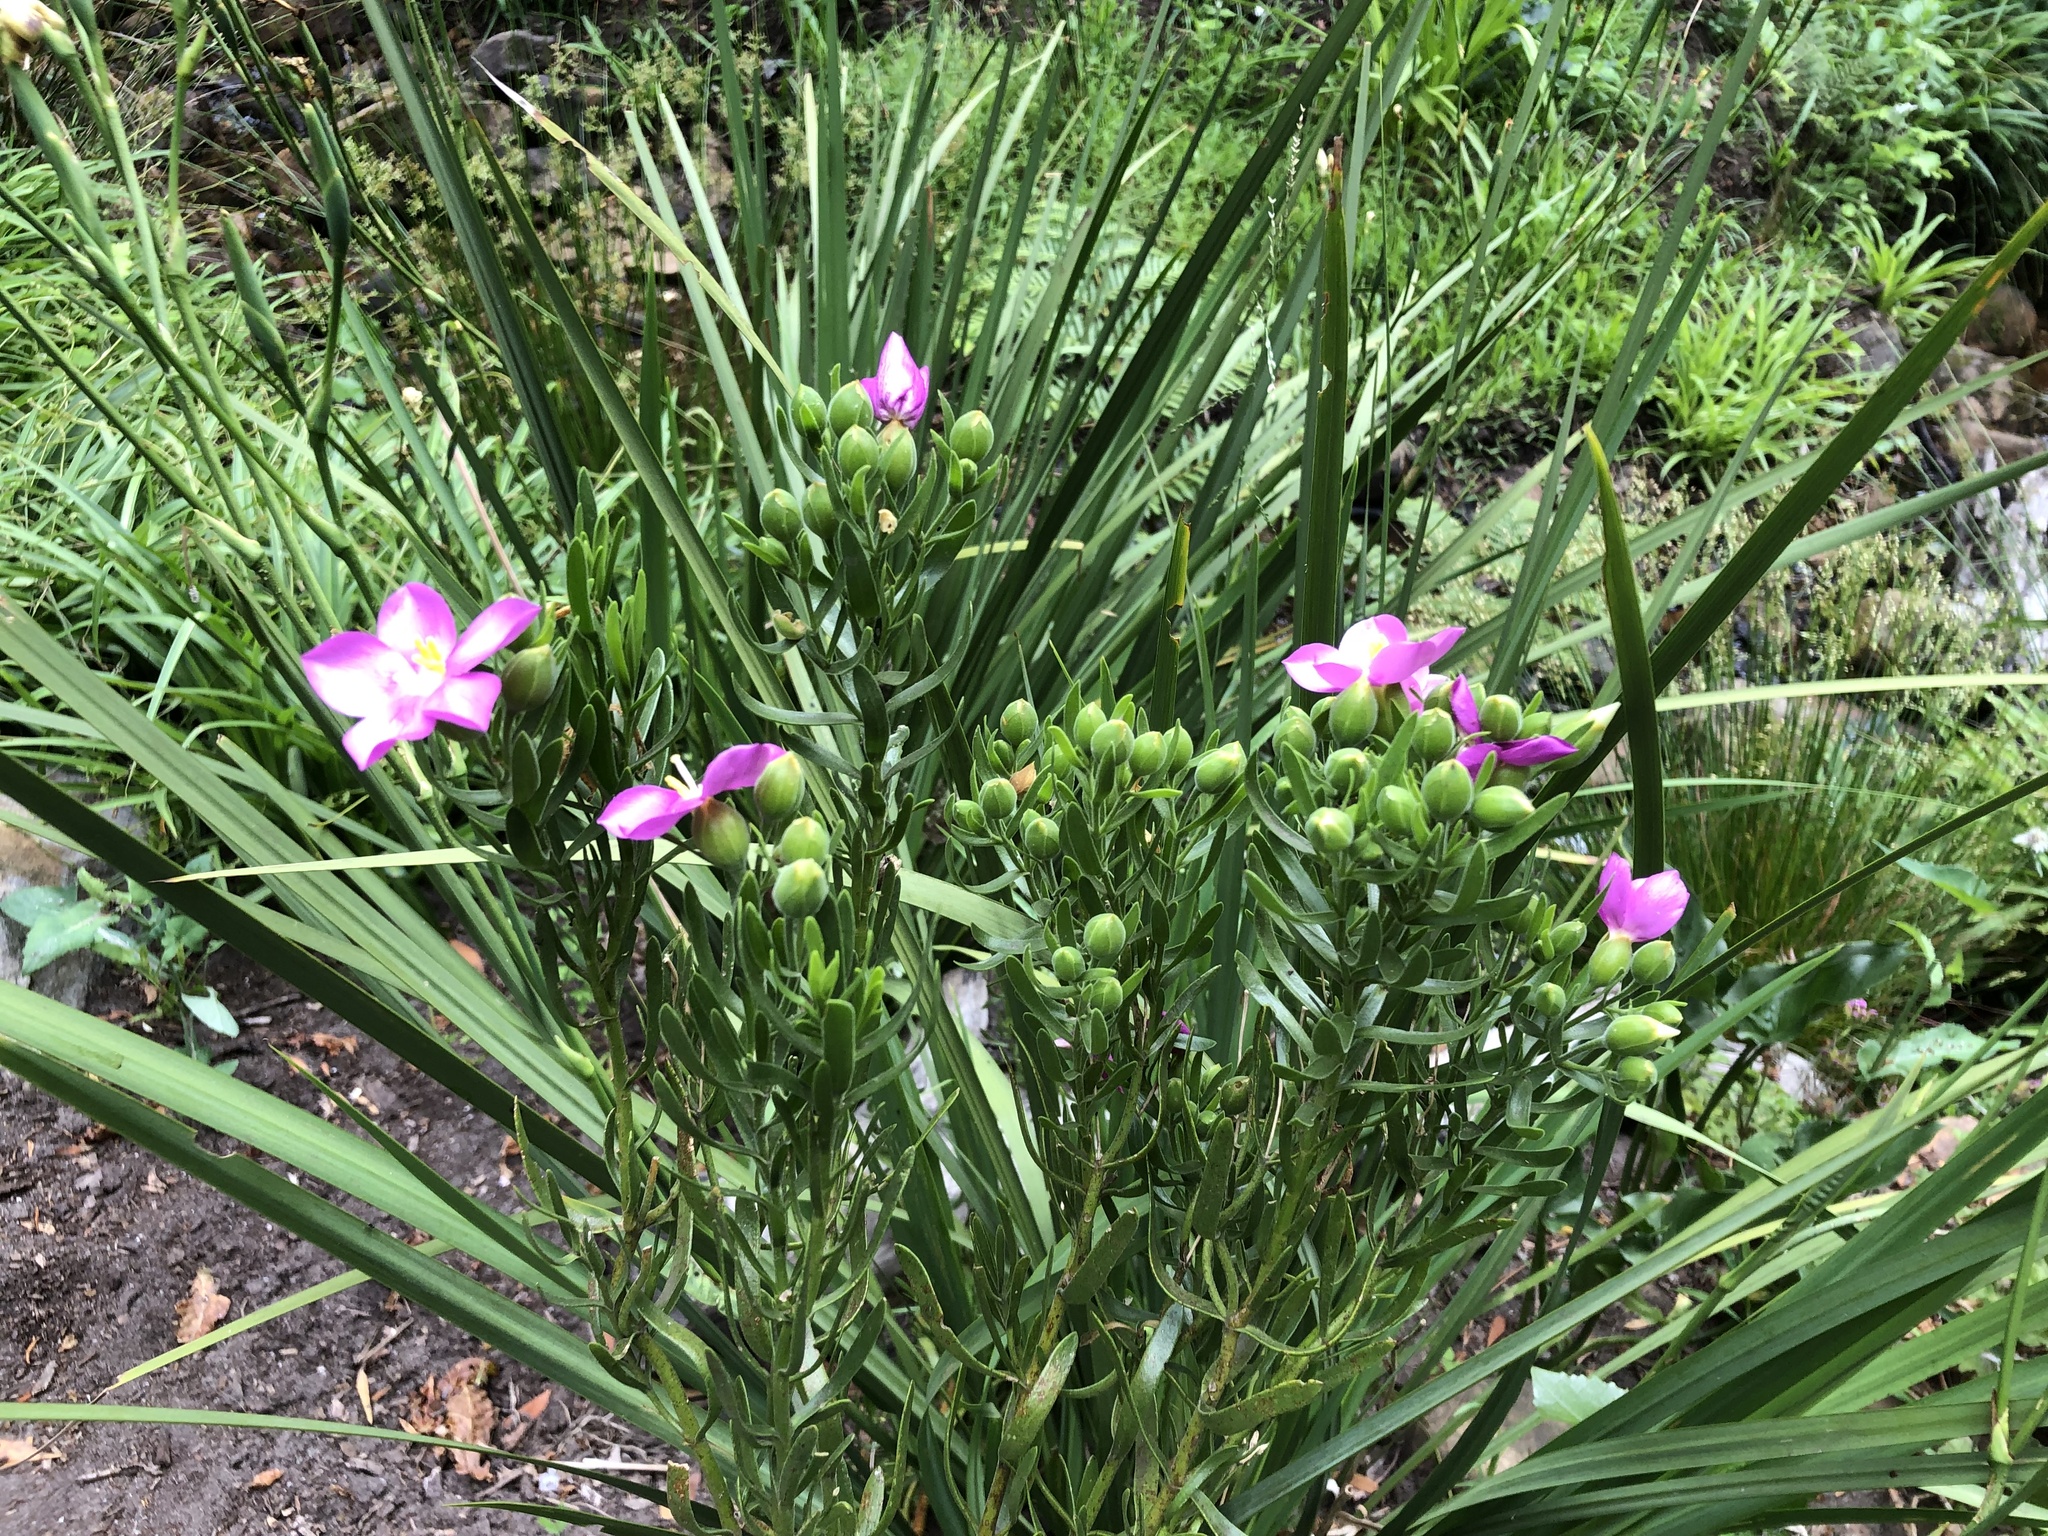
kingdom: Plantae
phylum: Tracheophyta
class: Magnoliopsida
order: Gentianales
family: Gentianaceae
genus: Orphium
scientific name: Orphium frutescens
